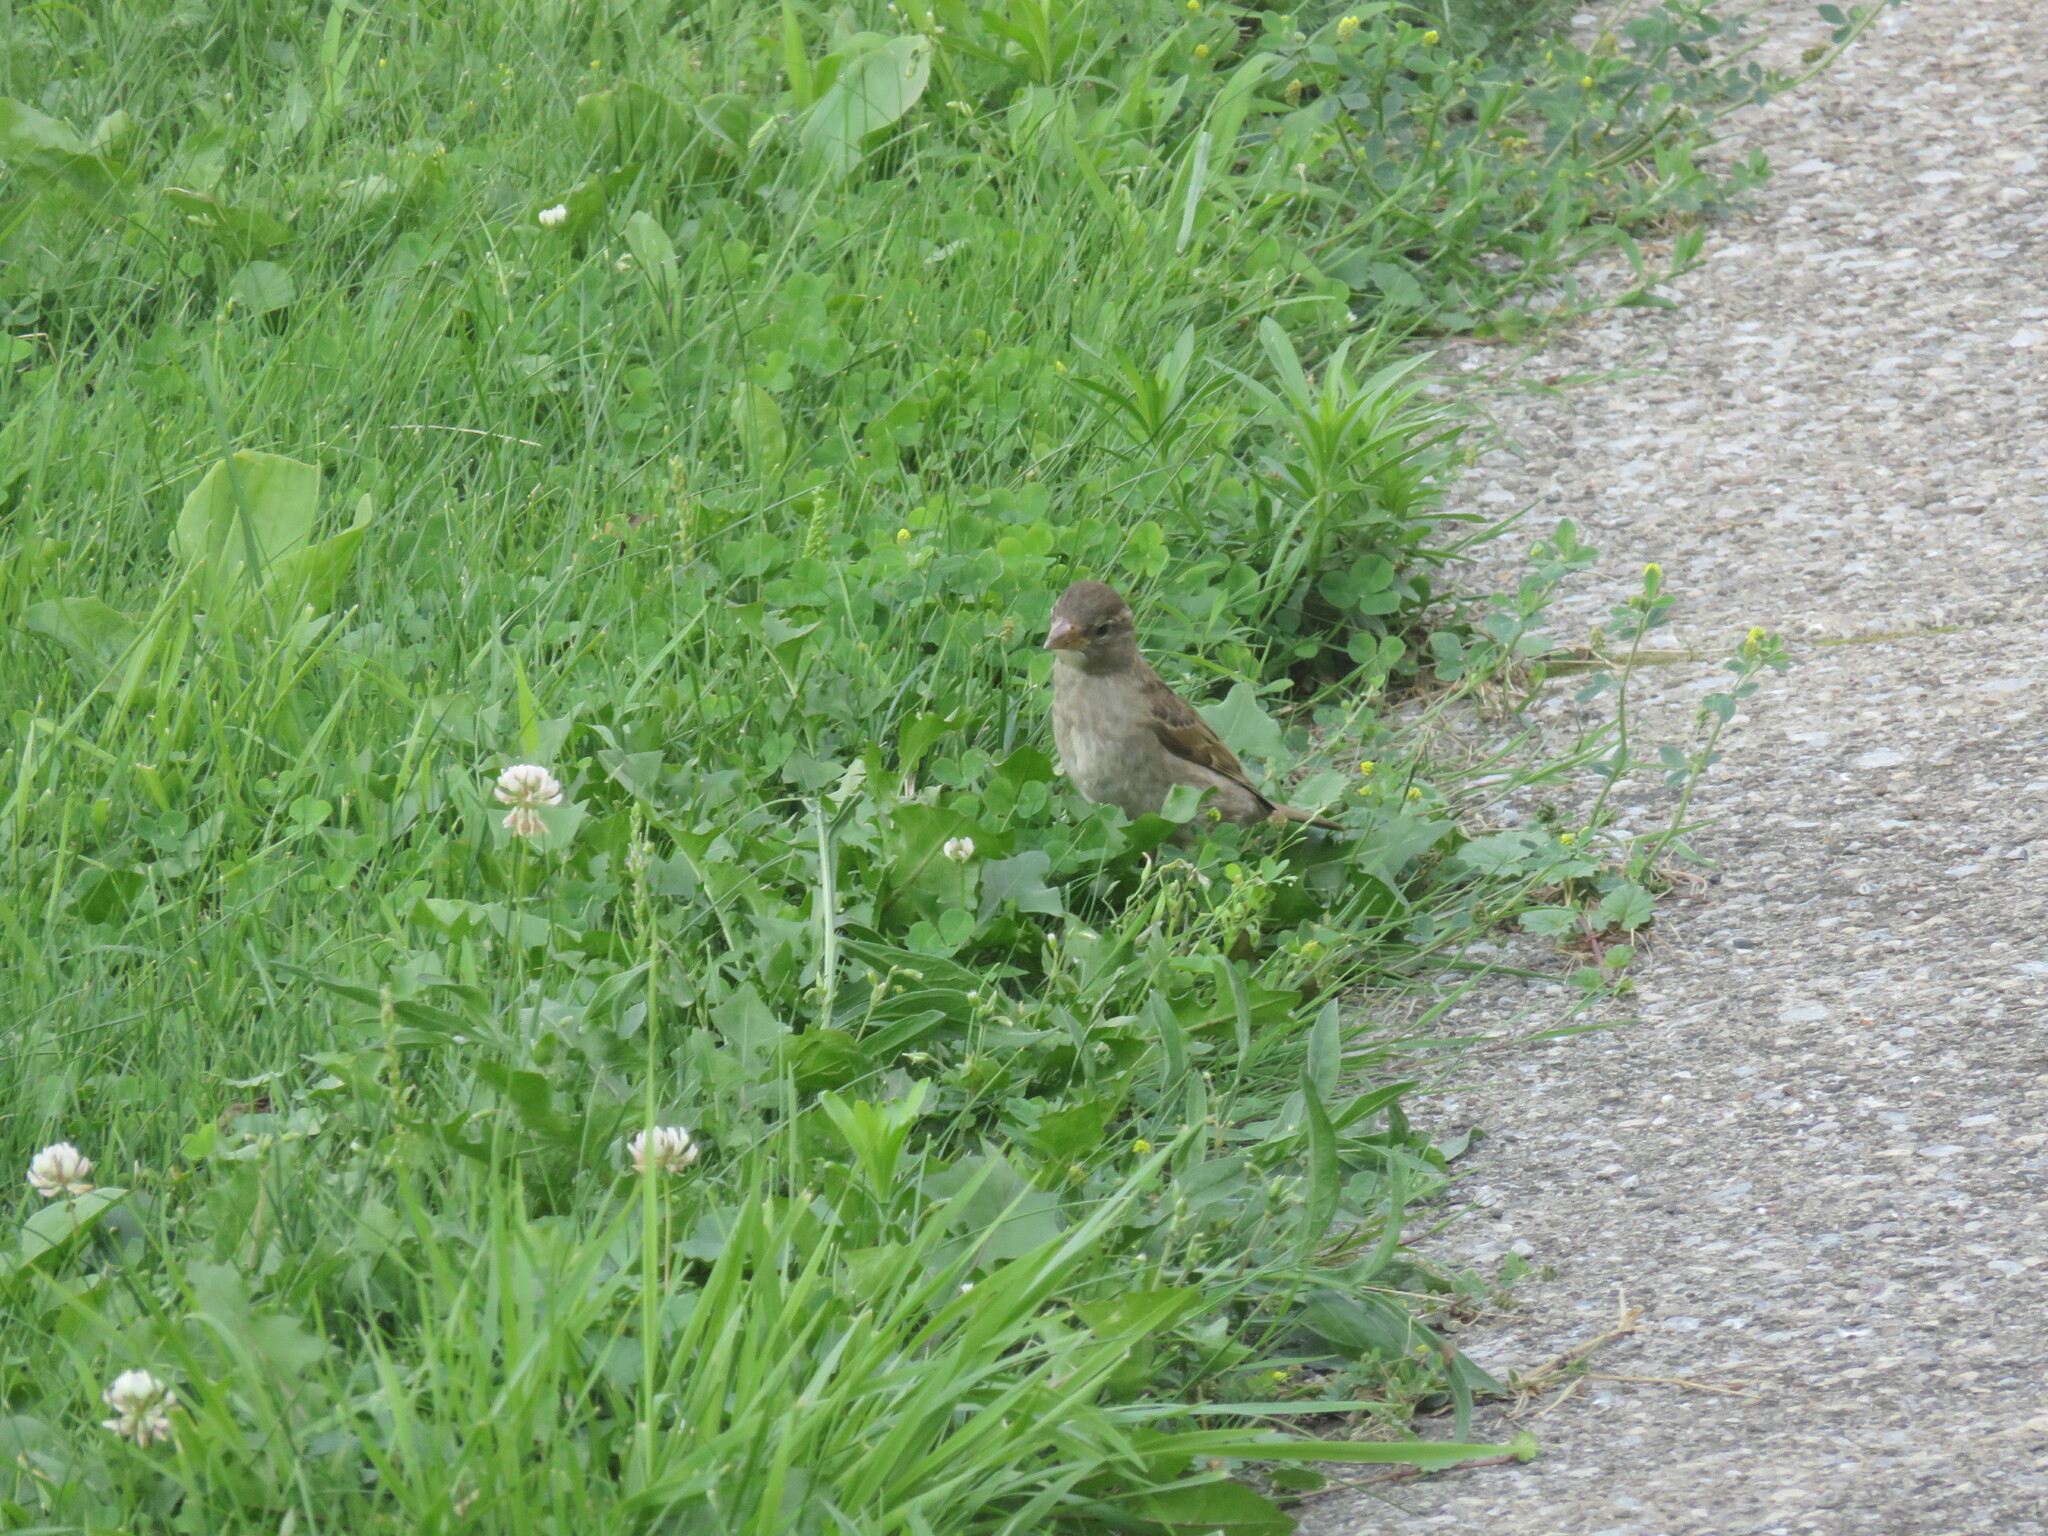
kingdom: Animalia
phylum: Chordata
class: Aves
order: Passeriformes
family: Passeridae
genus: Passer
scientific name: Passer domesticus
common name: House sparrow
